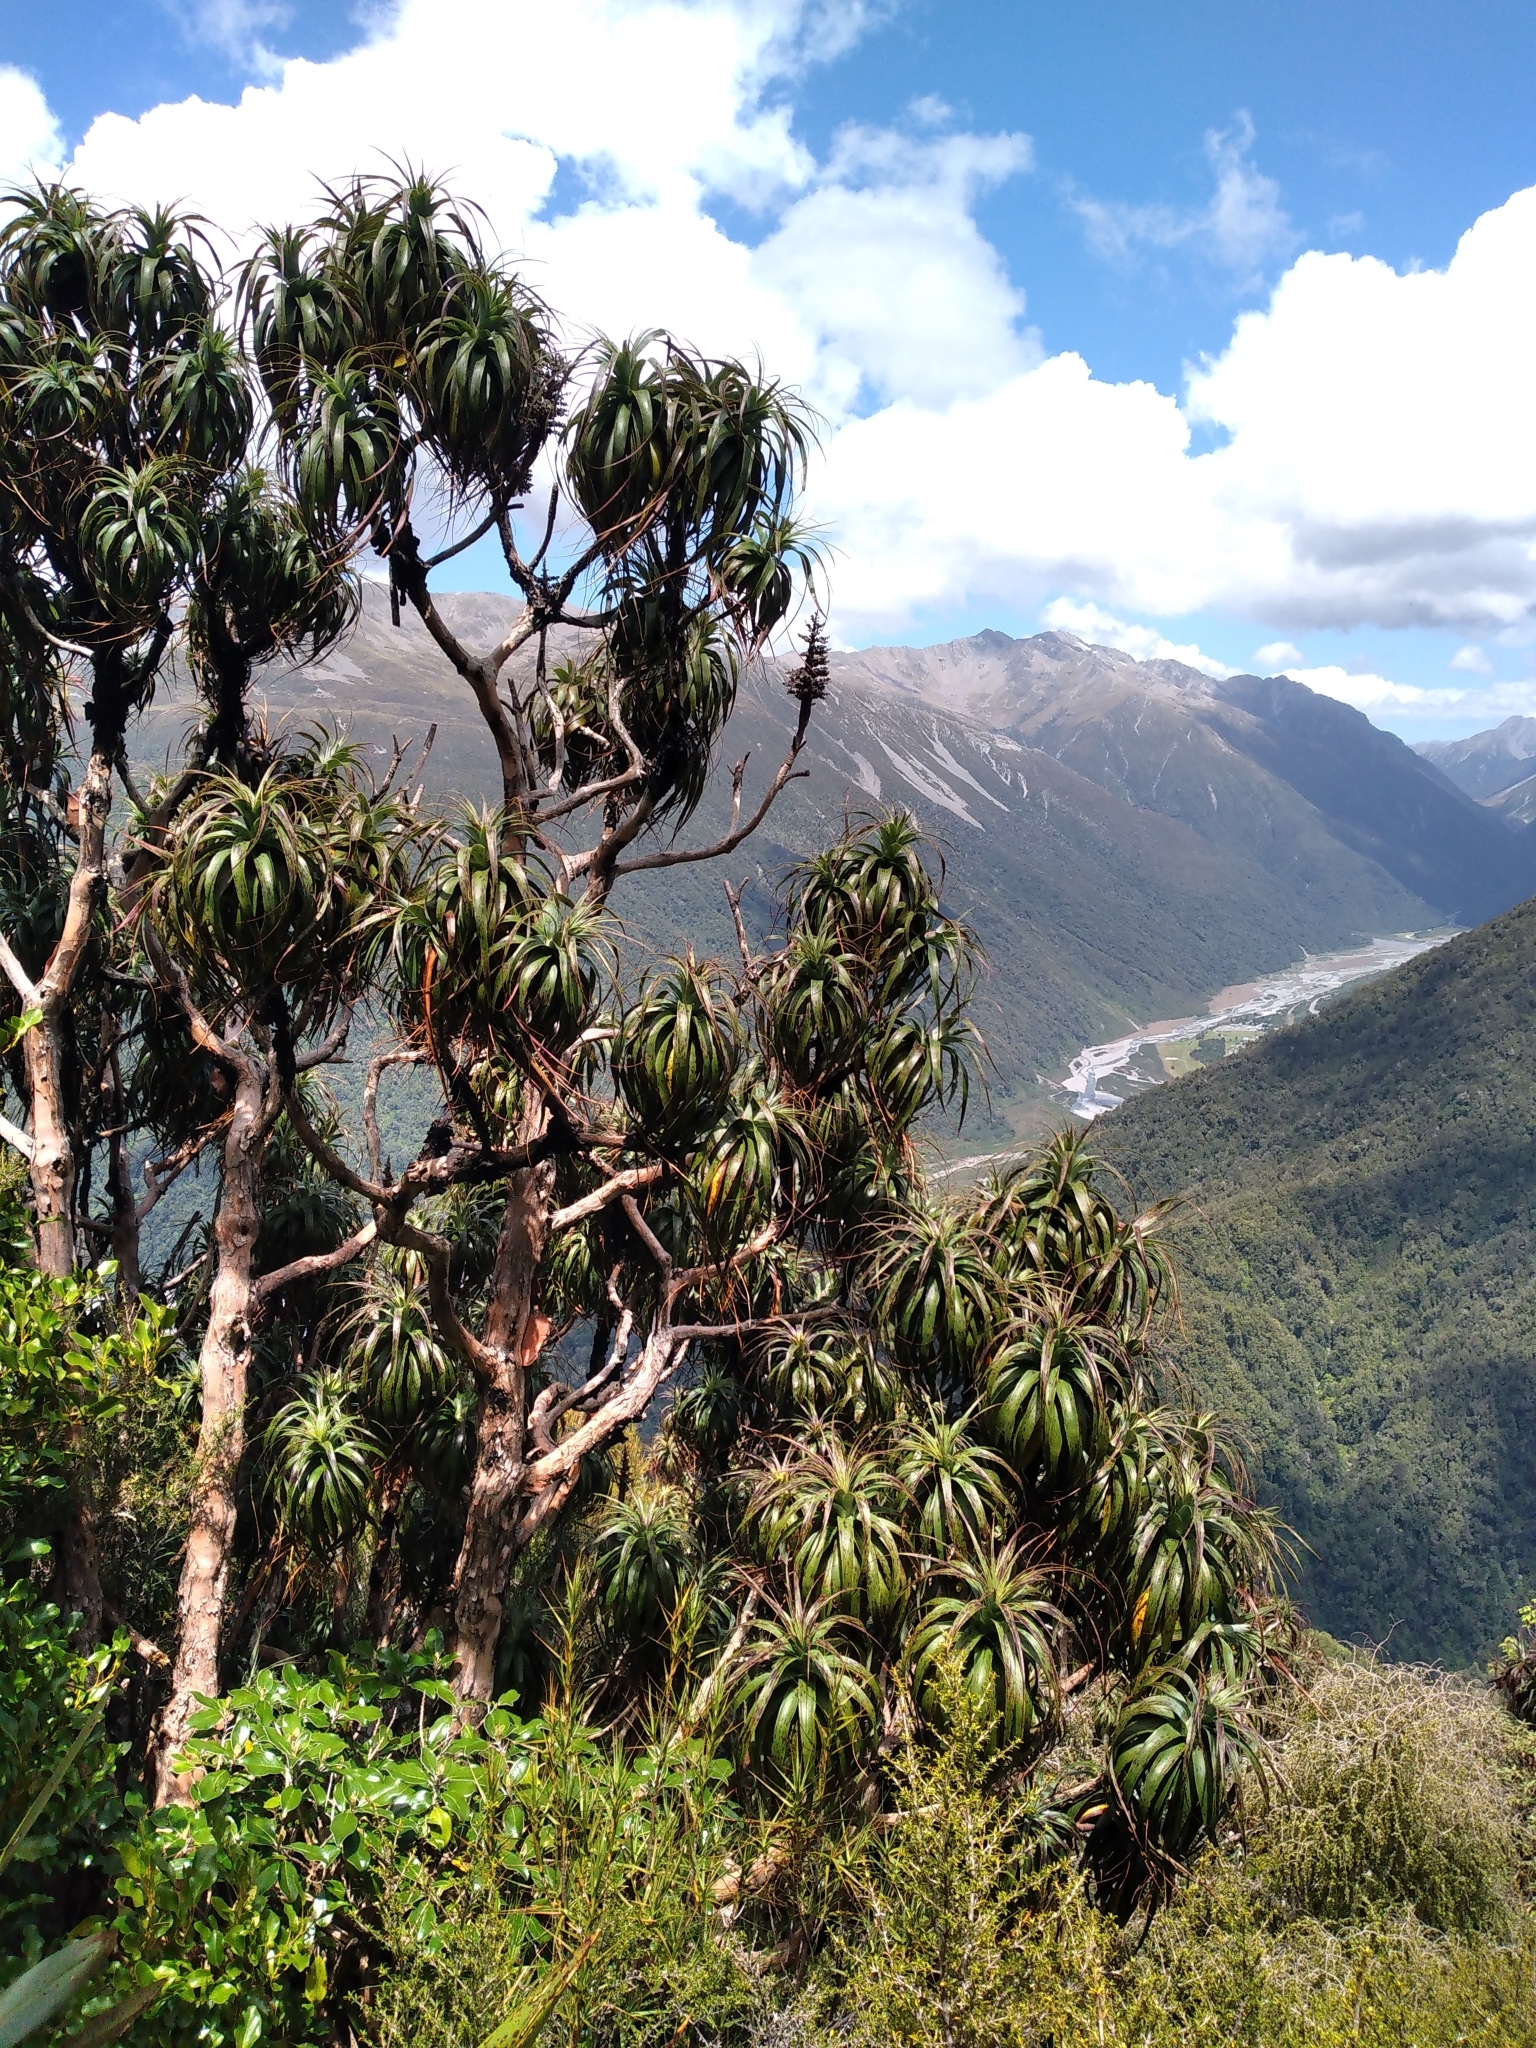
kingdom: Plantae
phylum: Tracheophyta
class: Magnoliopsida
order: Ericales
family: Ericaceae
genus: Dracophyllum
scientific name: Dracophyllum traversii
